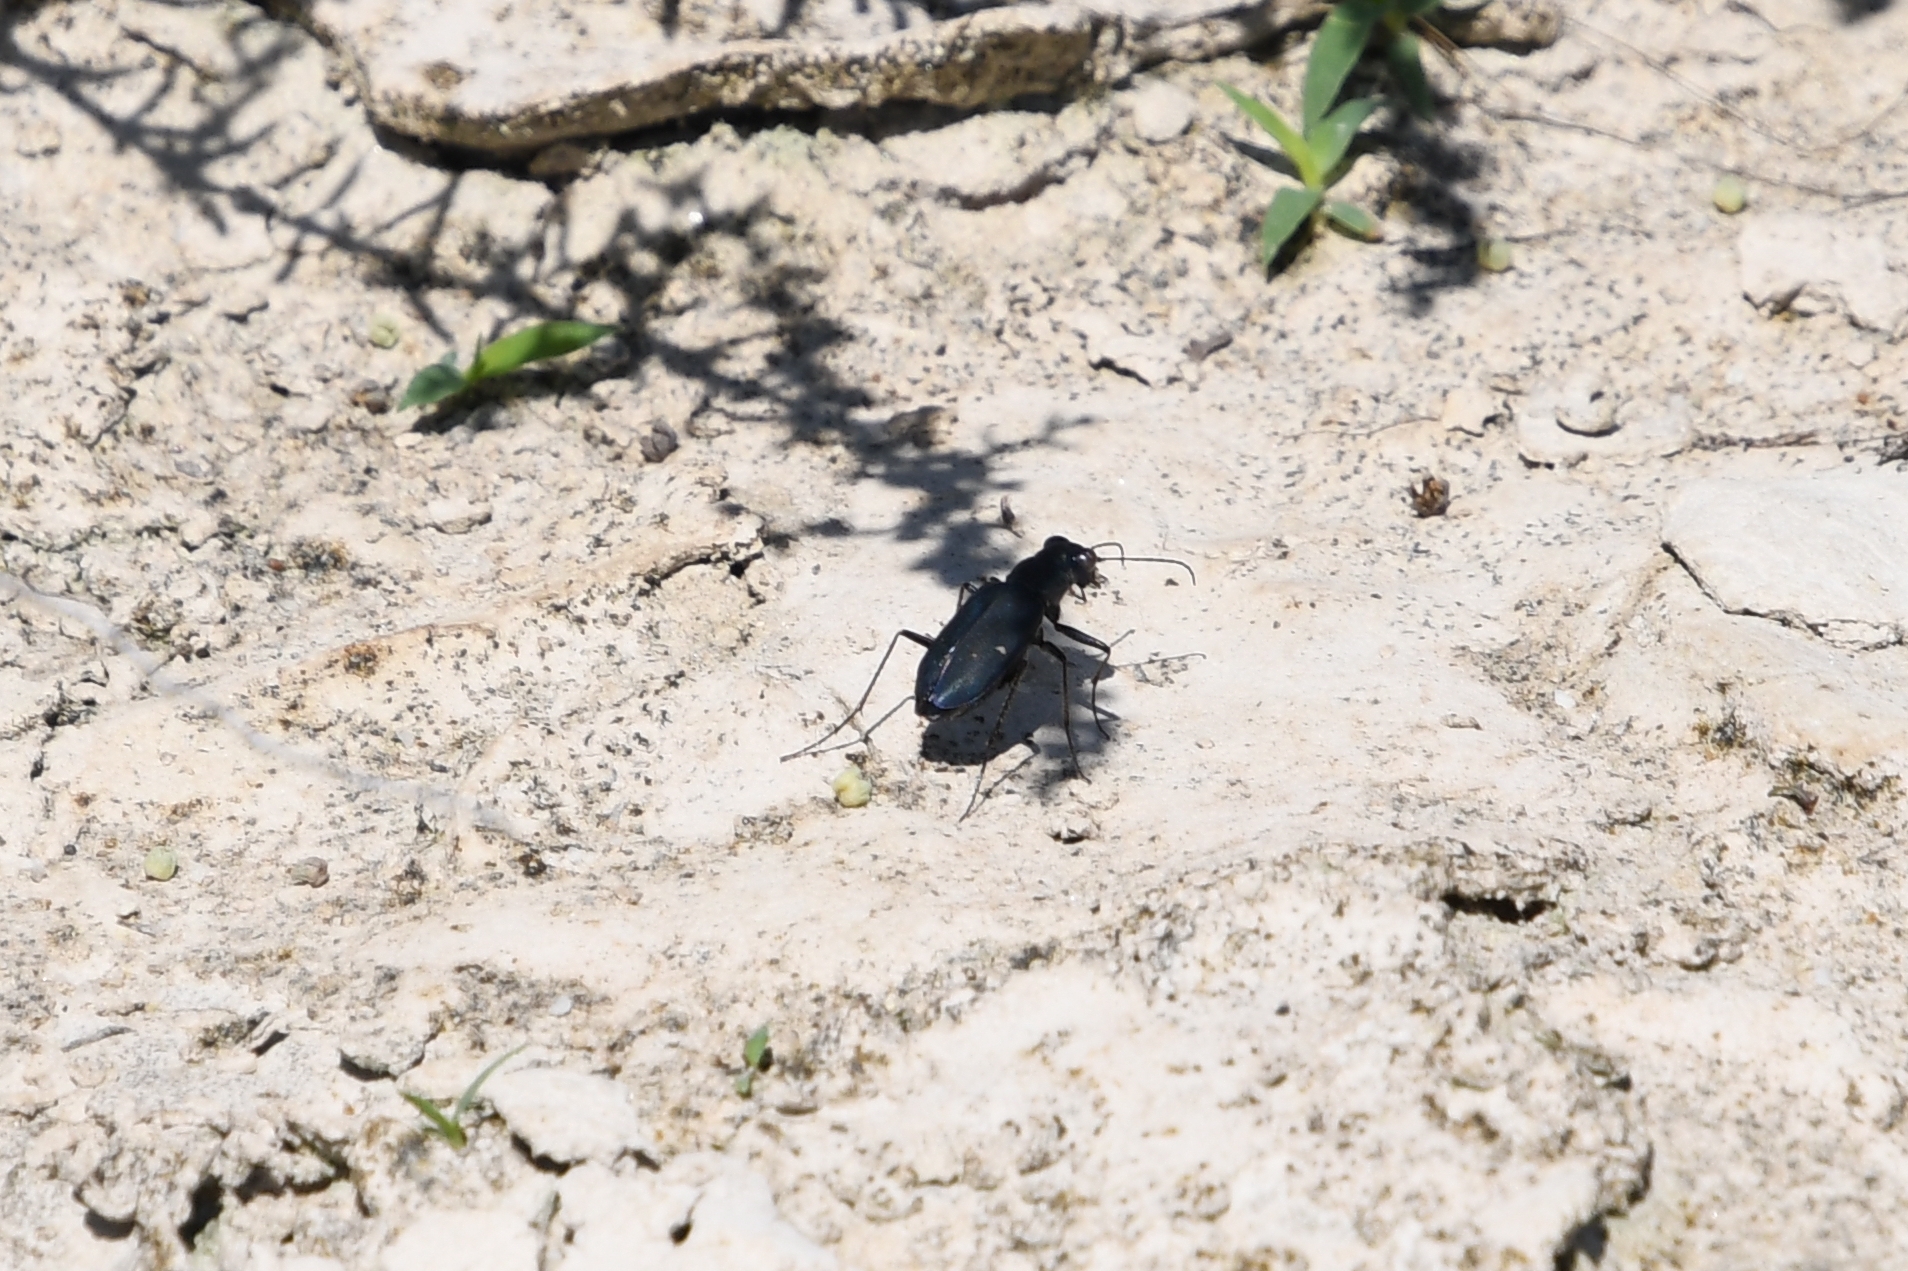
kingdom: Animalia
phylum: Arthropoda
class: Insecta
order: Coleoptera
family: Carabidae
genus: Cicindela
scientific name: Cicindela nigrocoerulea
